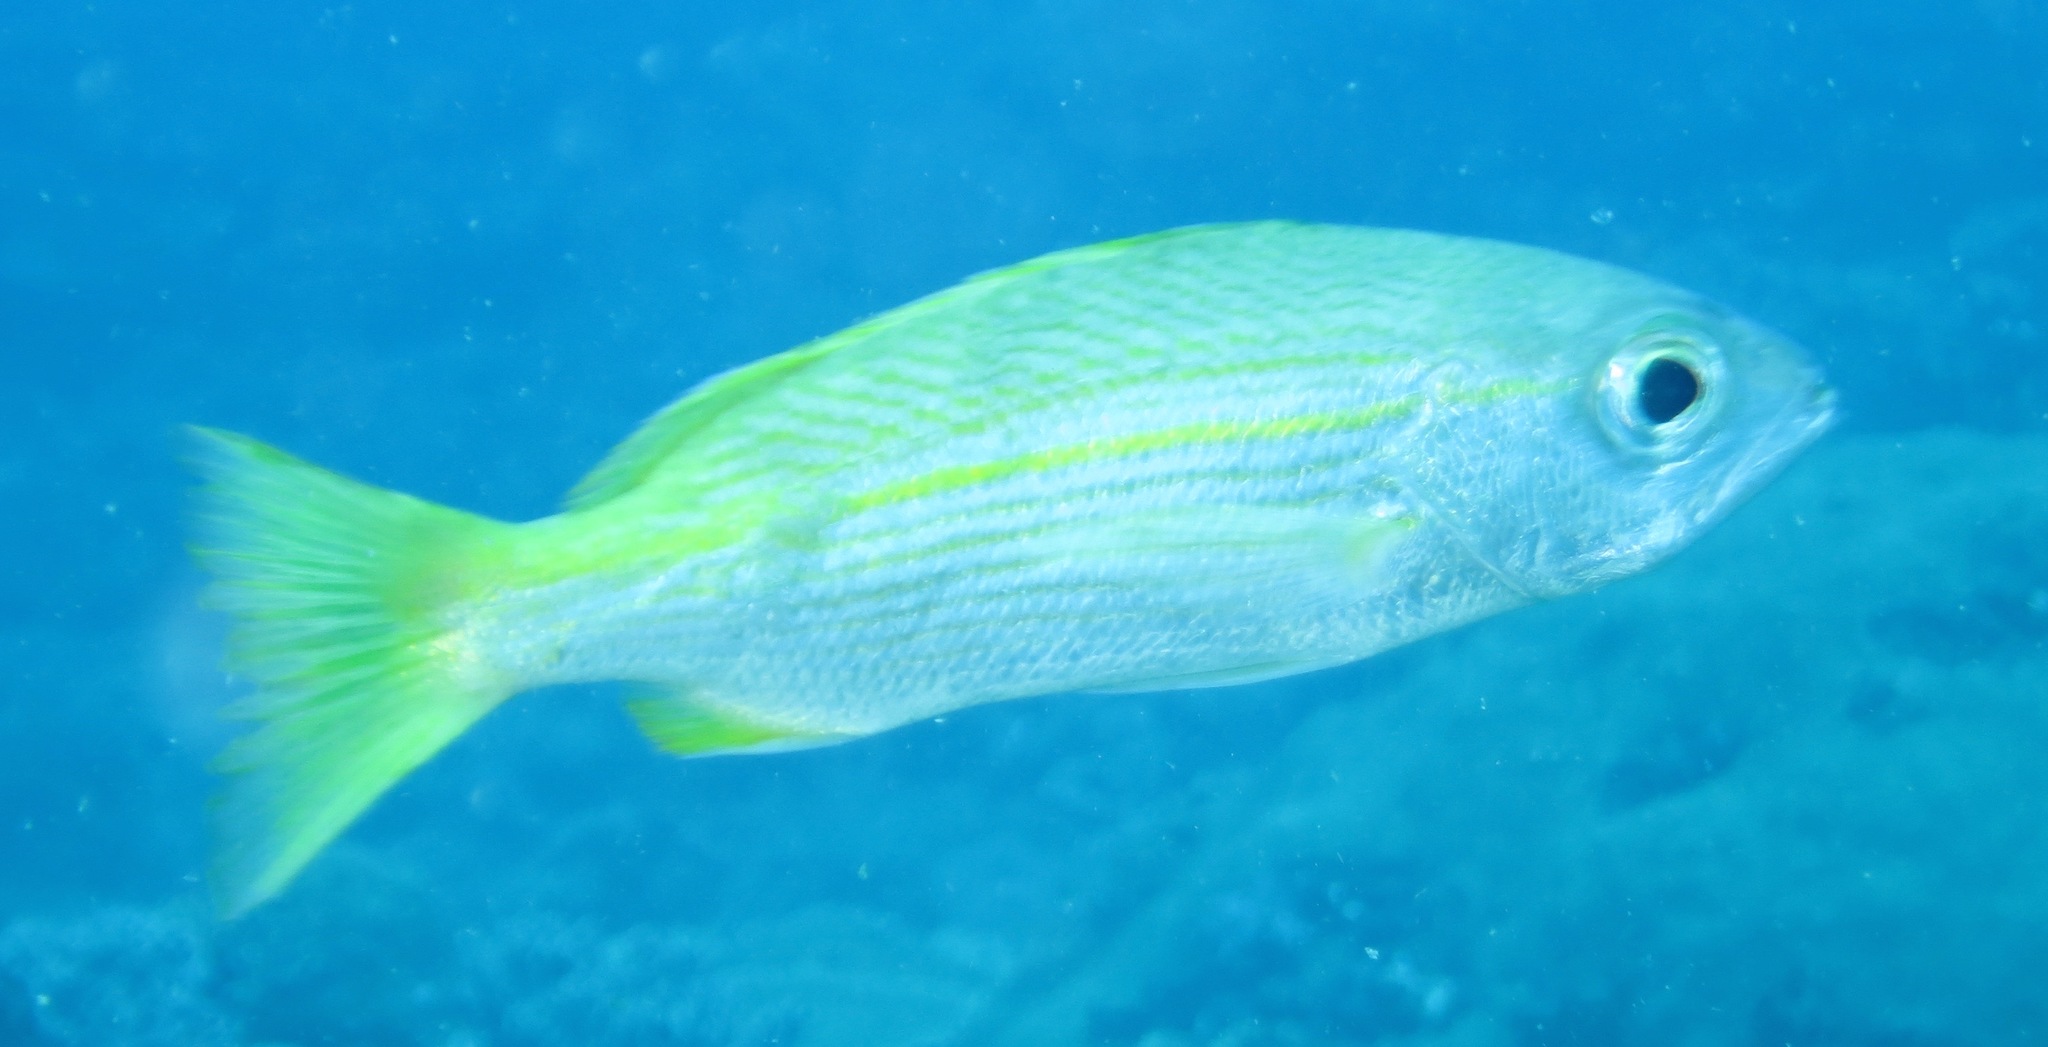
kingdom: Animalia
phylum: Chordata
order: Perciformes
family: Lutjanidae
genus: Lutjanus
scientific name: Lutjanus madras
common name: Indian snapper
